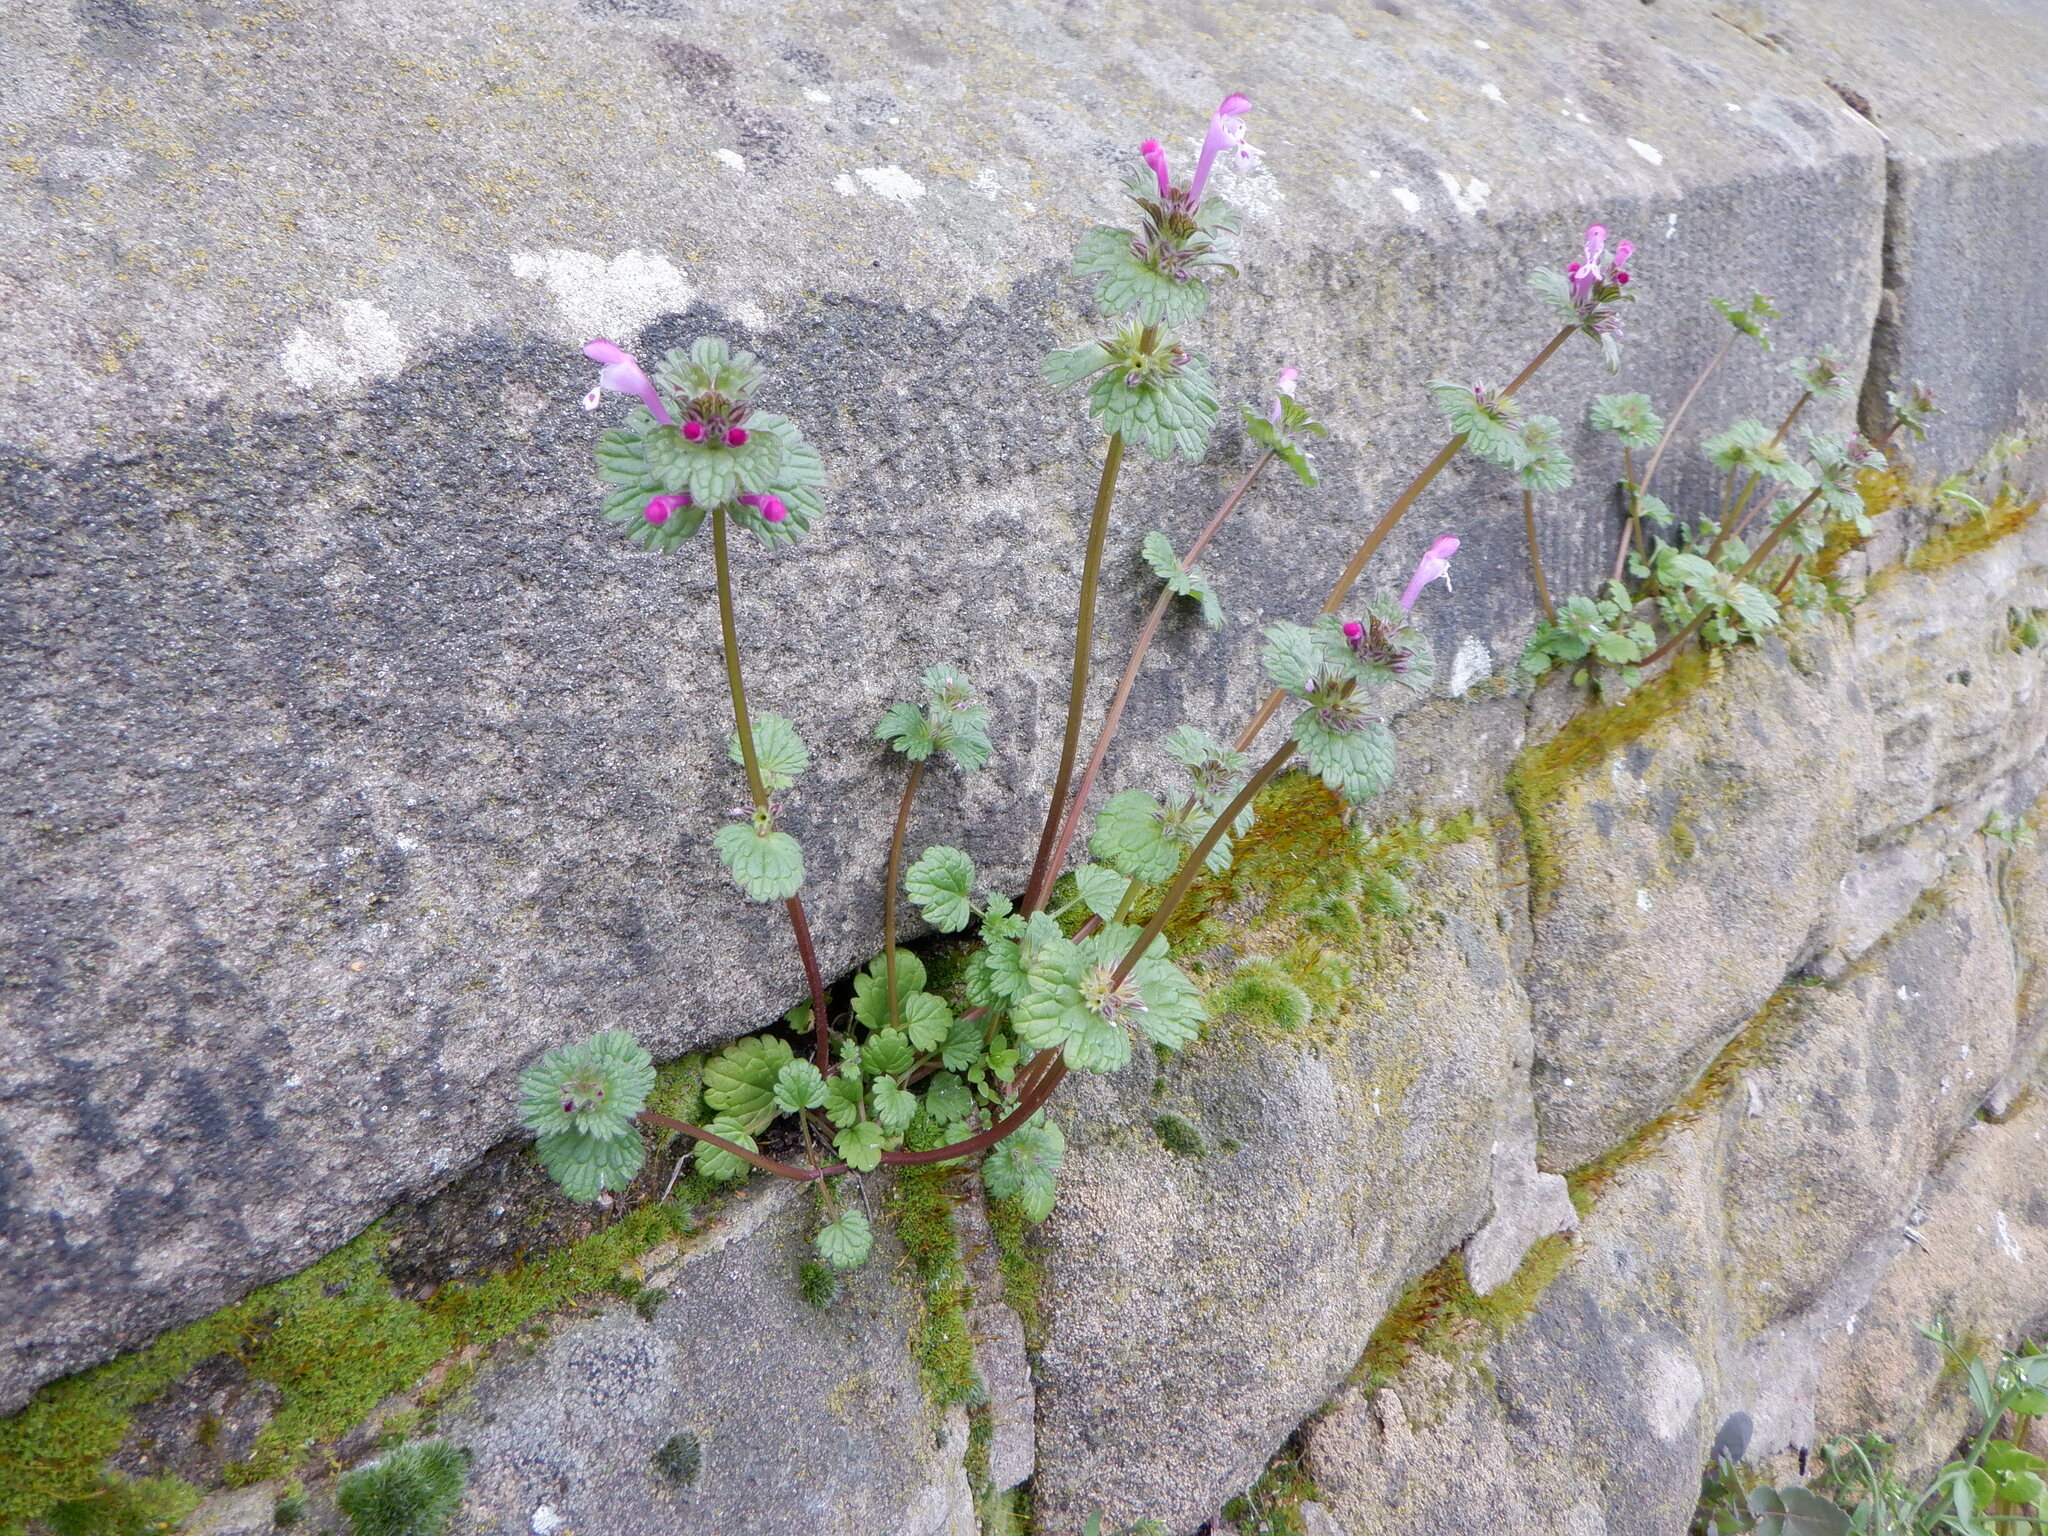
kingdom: Plantae
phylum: Tracheophyta
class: Magnoliopsida
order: Lamiales
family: Lamiaceae
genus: Lamium
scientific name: Lamium amplexicaule
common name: Henbit dead-nettle
